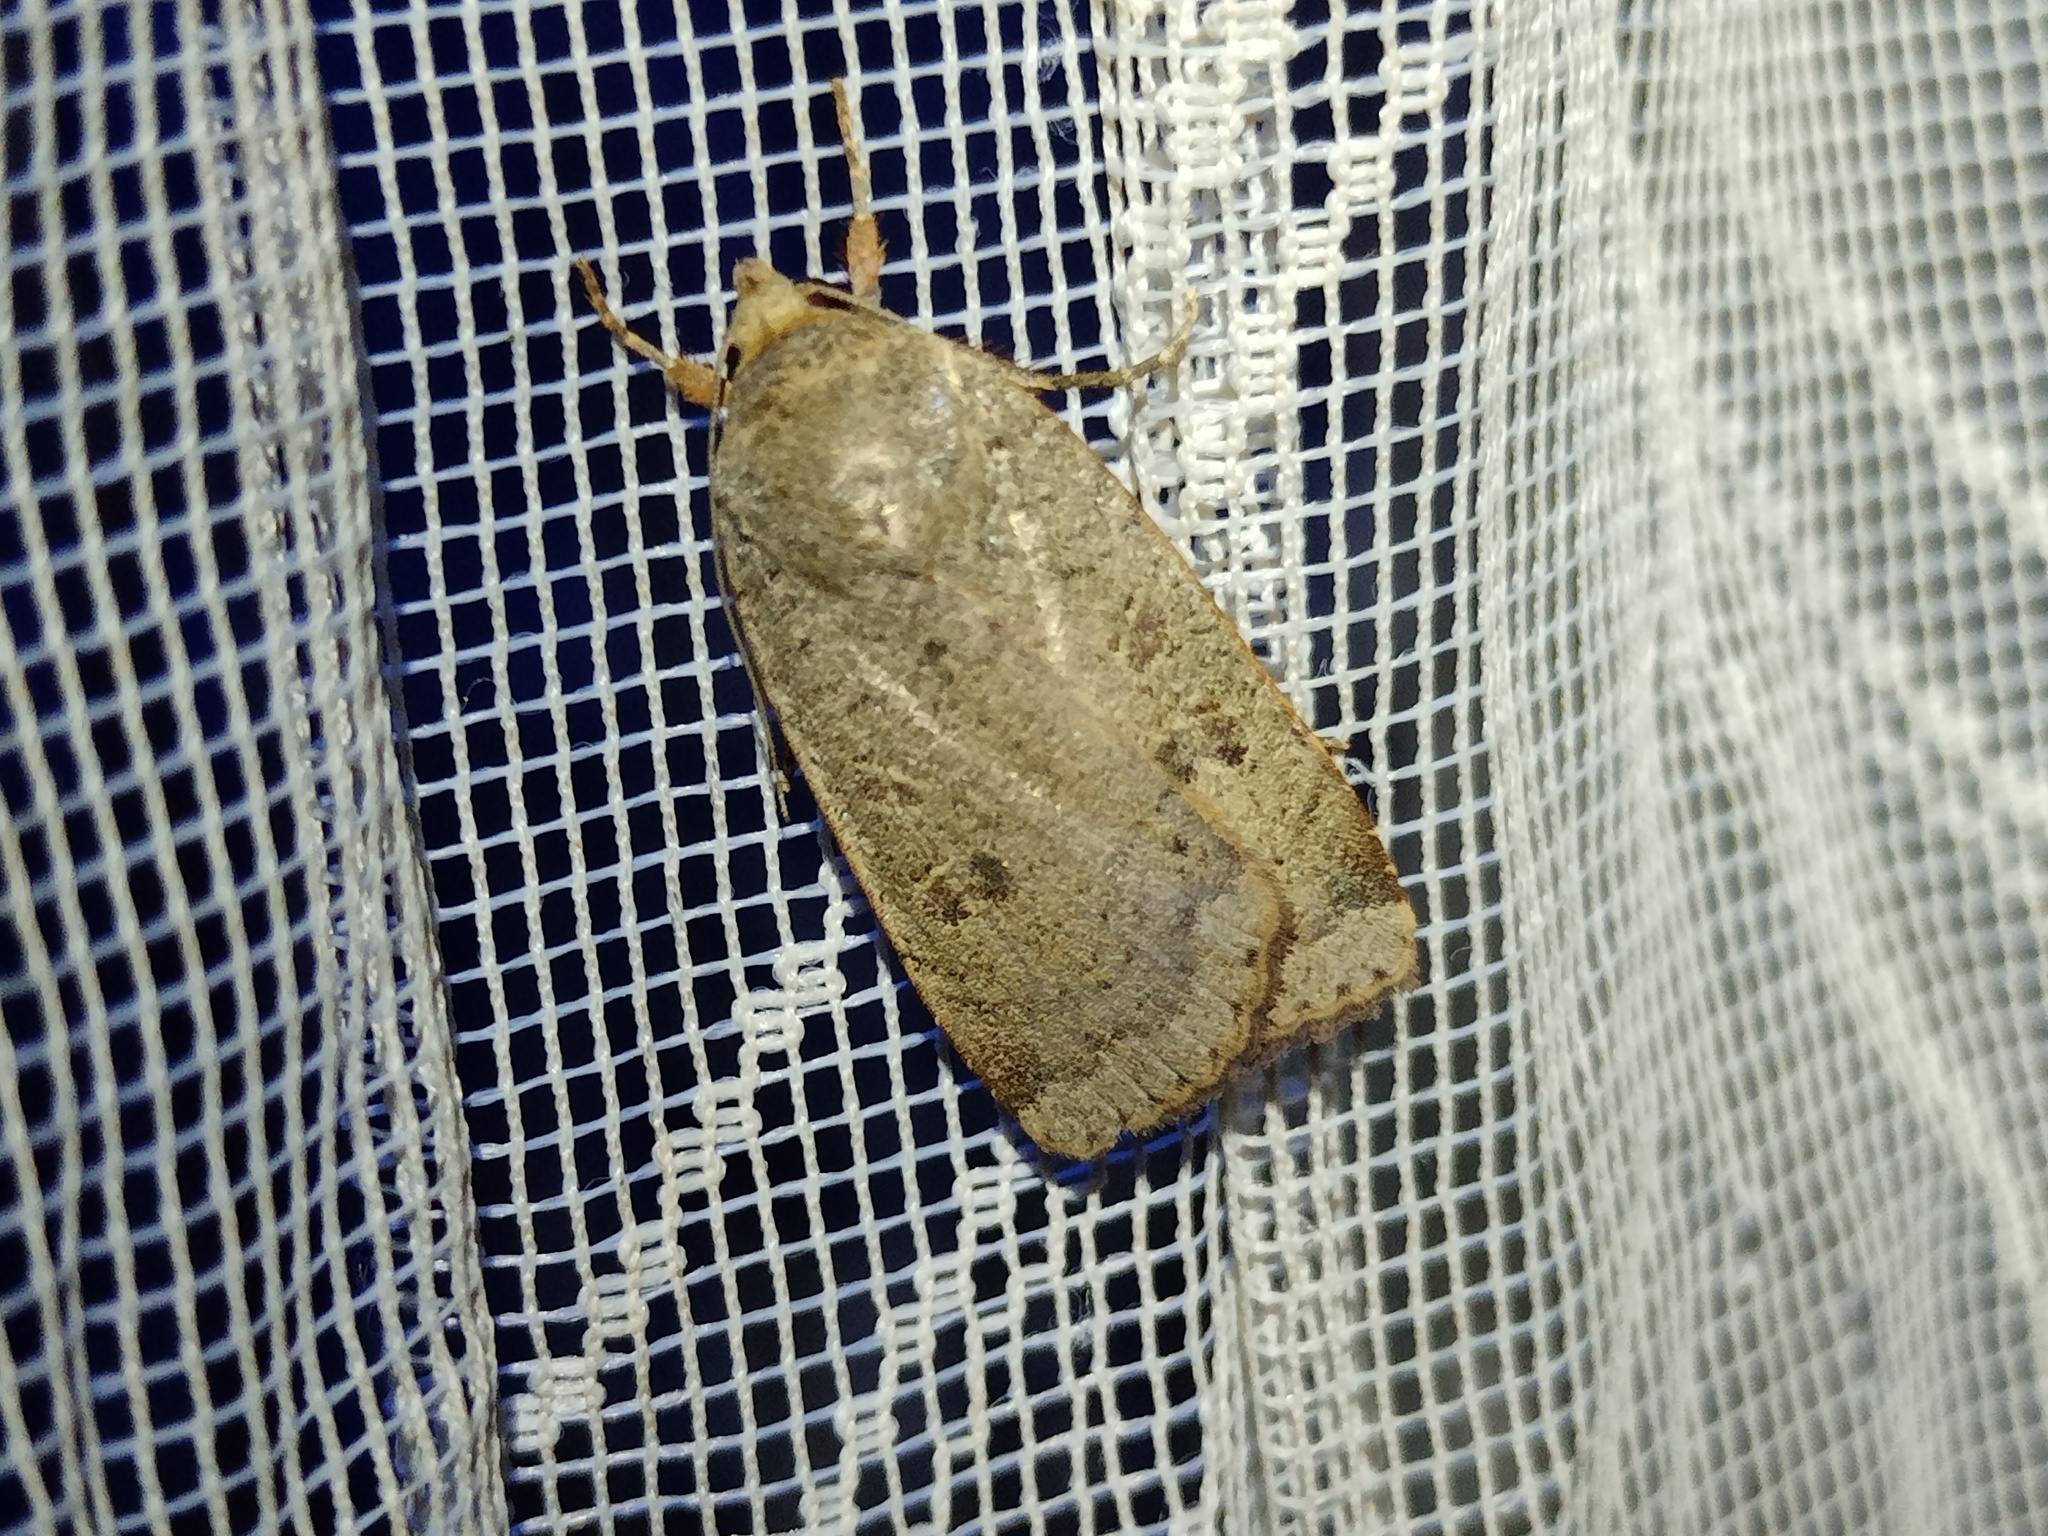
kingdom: Animalia
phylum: Arthropoda
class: Insecta
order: Lepidoptera
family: Noctuidae
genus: Noctua
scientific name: Noctua comes
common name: Lesser yellow underwing
